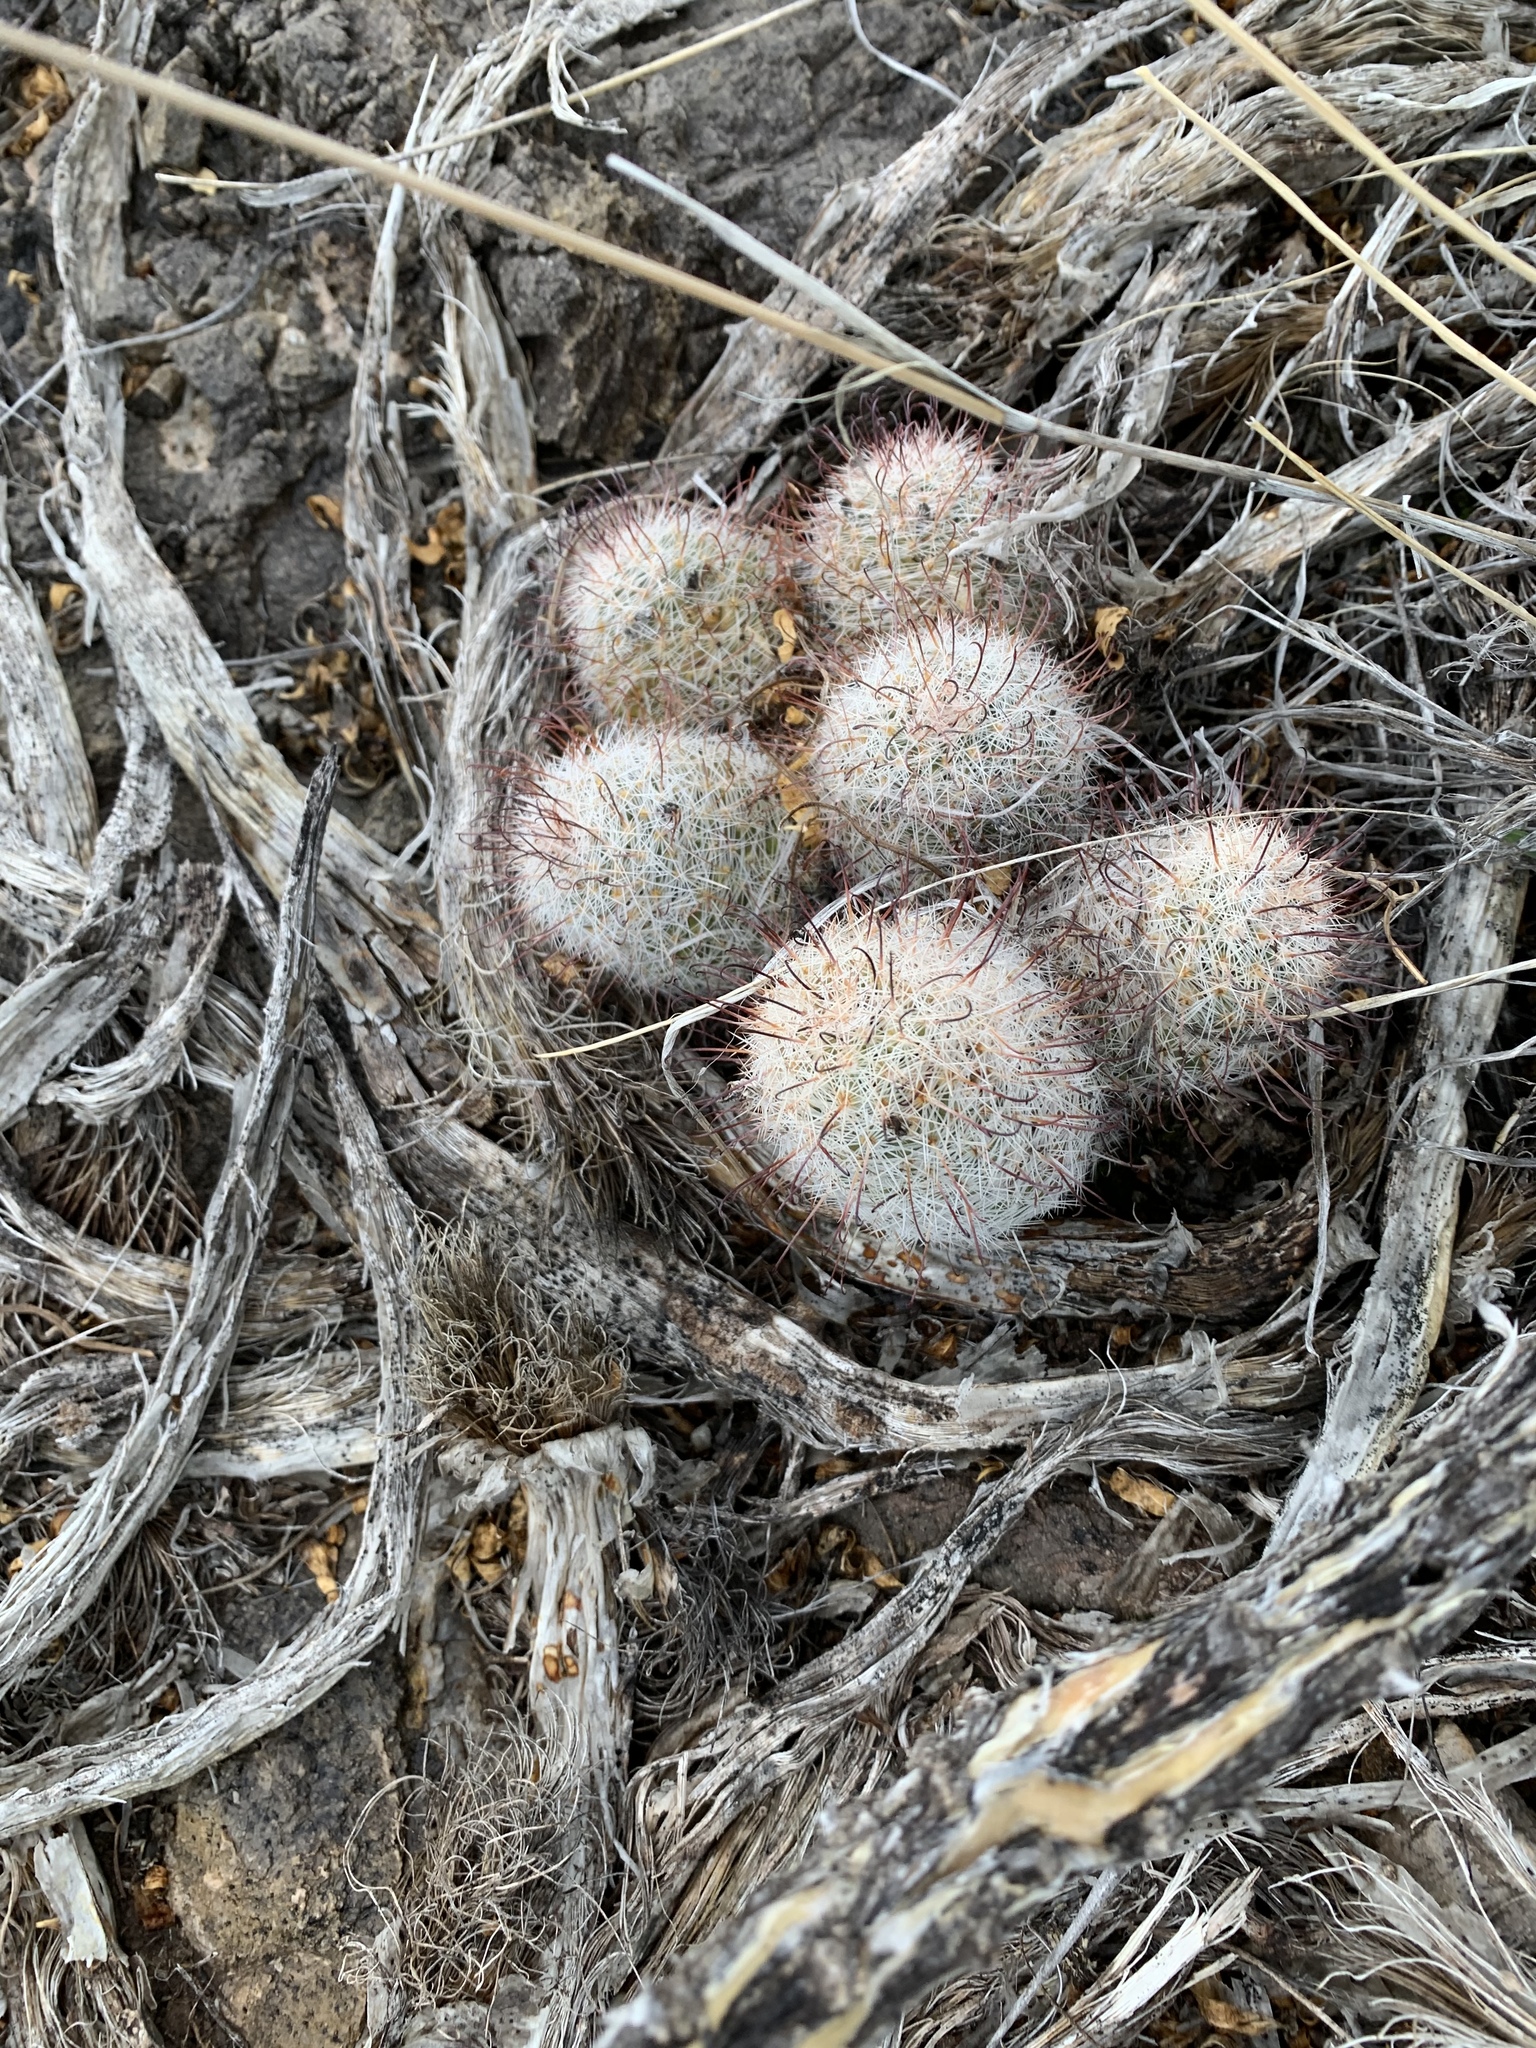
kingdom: Plantae
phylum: Tracheophyta
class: Magnoliopsida
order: Caryophyllales
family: Cactaceae
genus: Cochemiea
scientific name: Cochemiea grahamii
